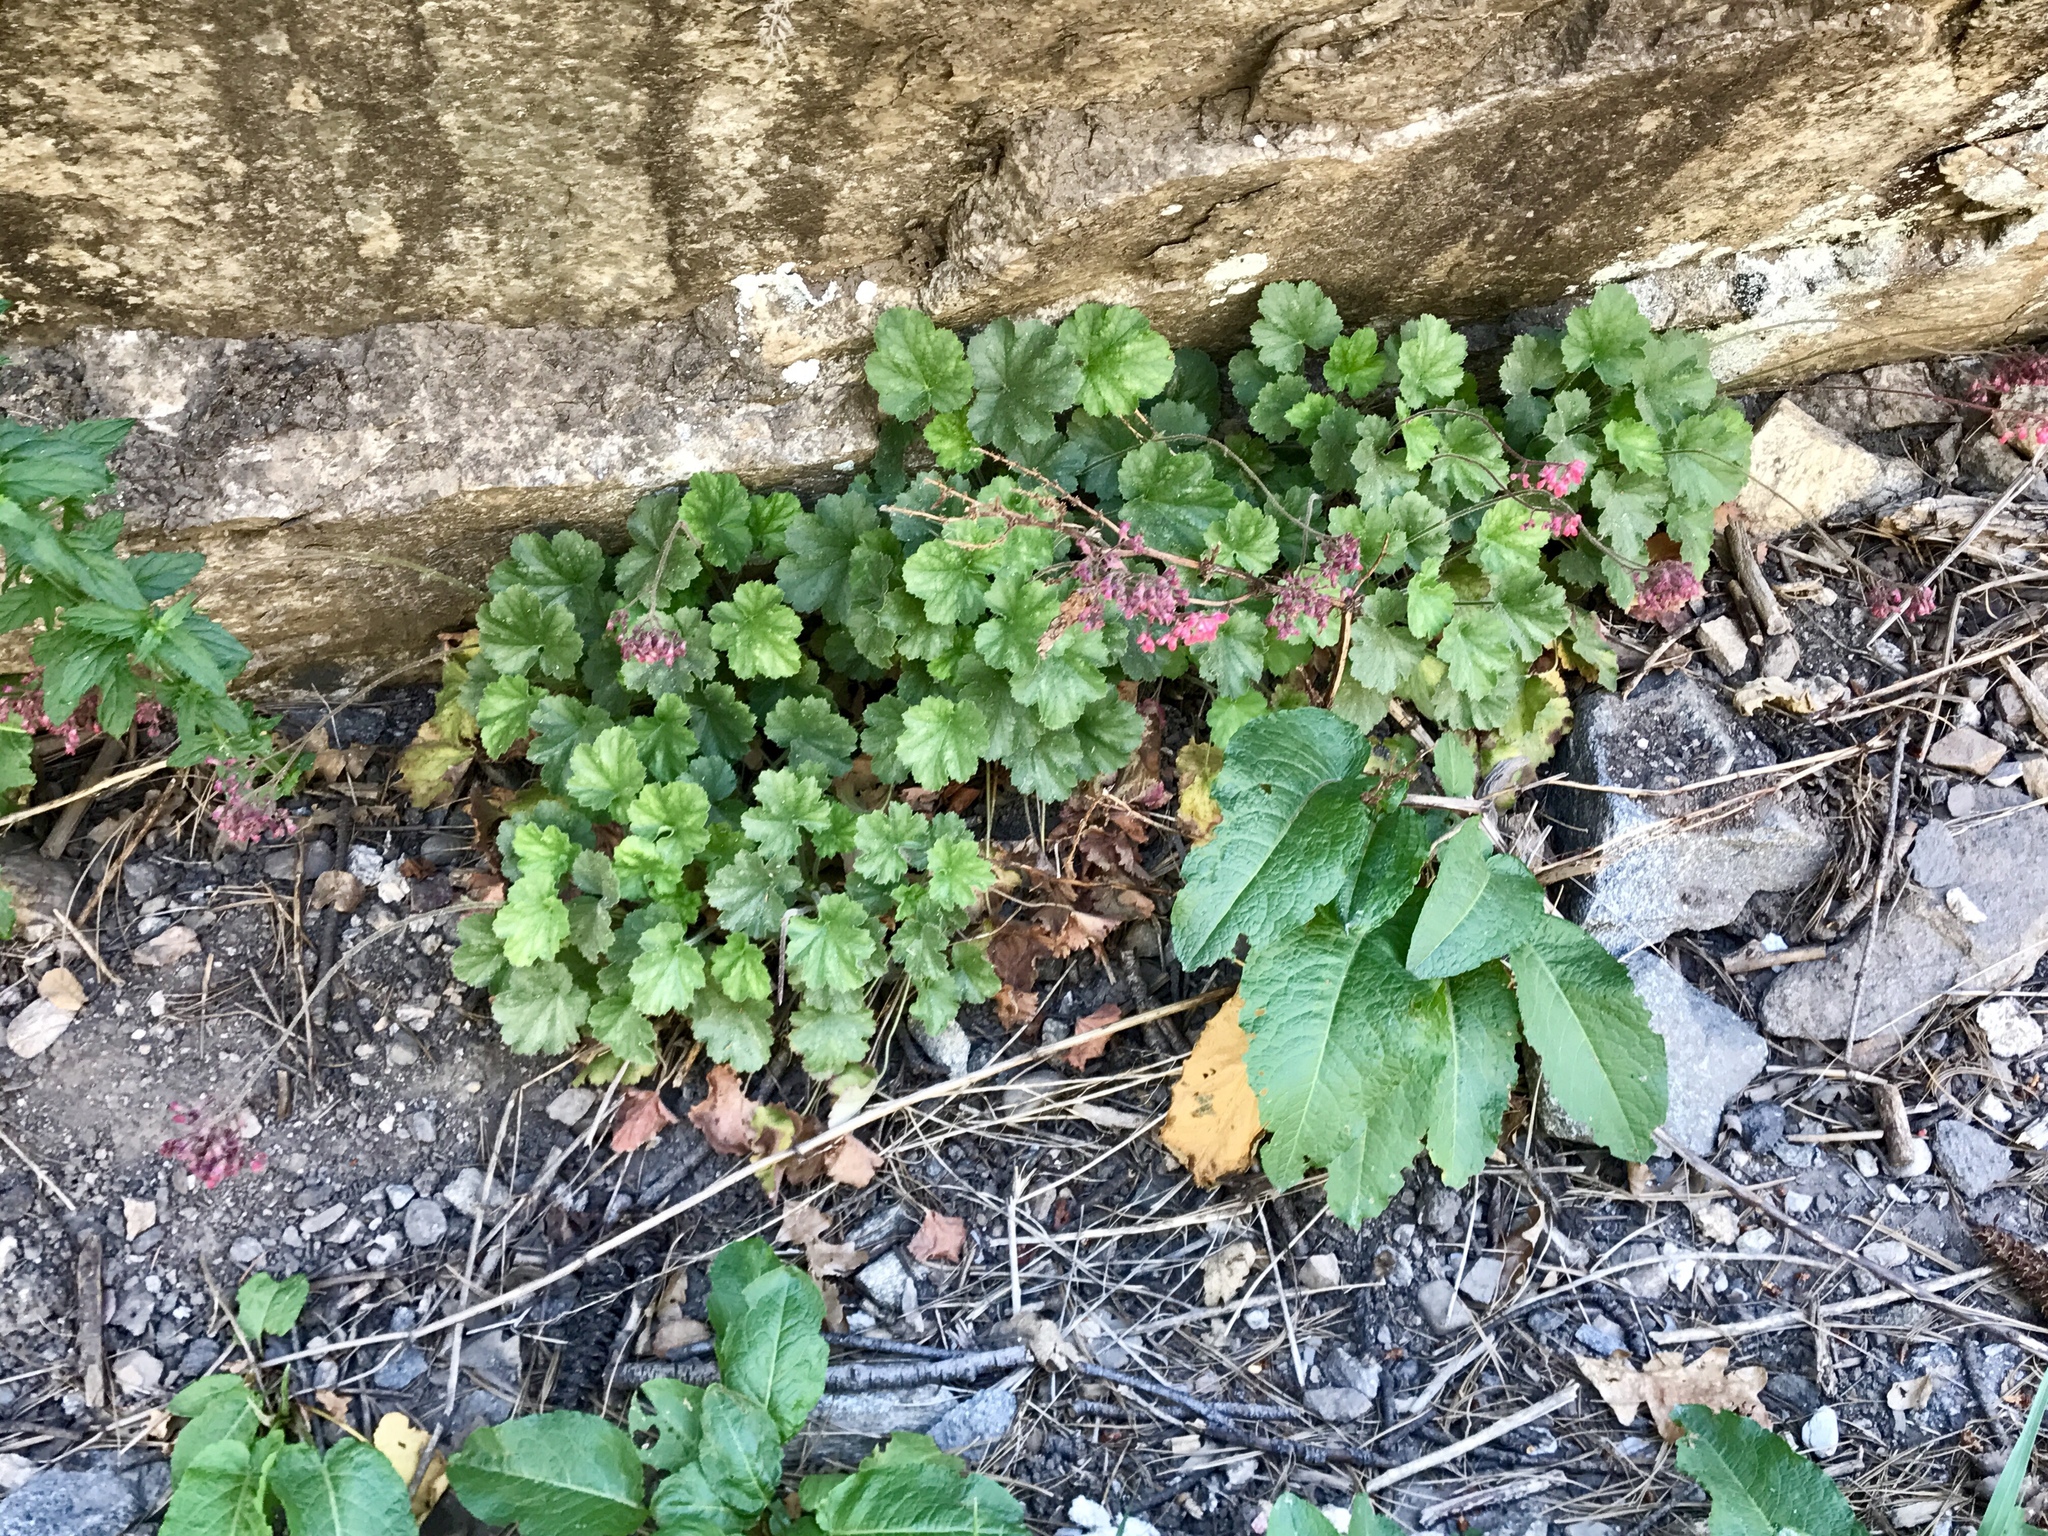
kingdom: Plantae
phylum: Tracheophyta
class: Magnoliopsida
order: Saxifragales
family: Saxifragaceae
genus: Heuchera
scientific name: Heuchera sanguinea
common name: Coralbells
